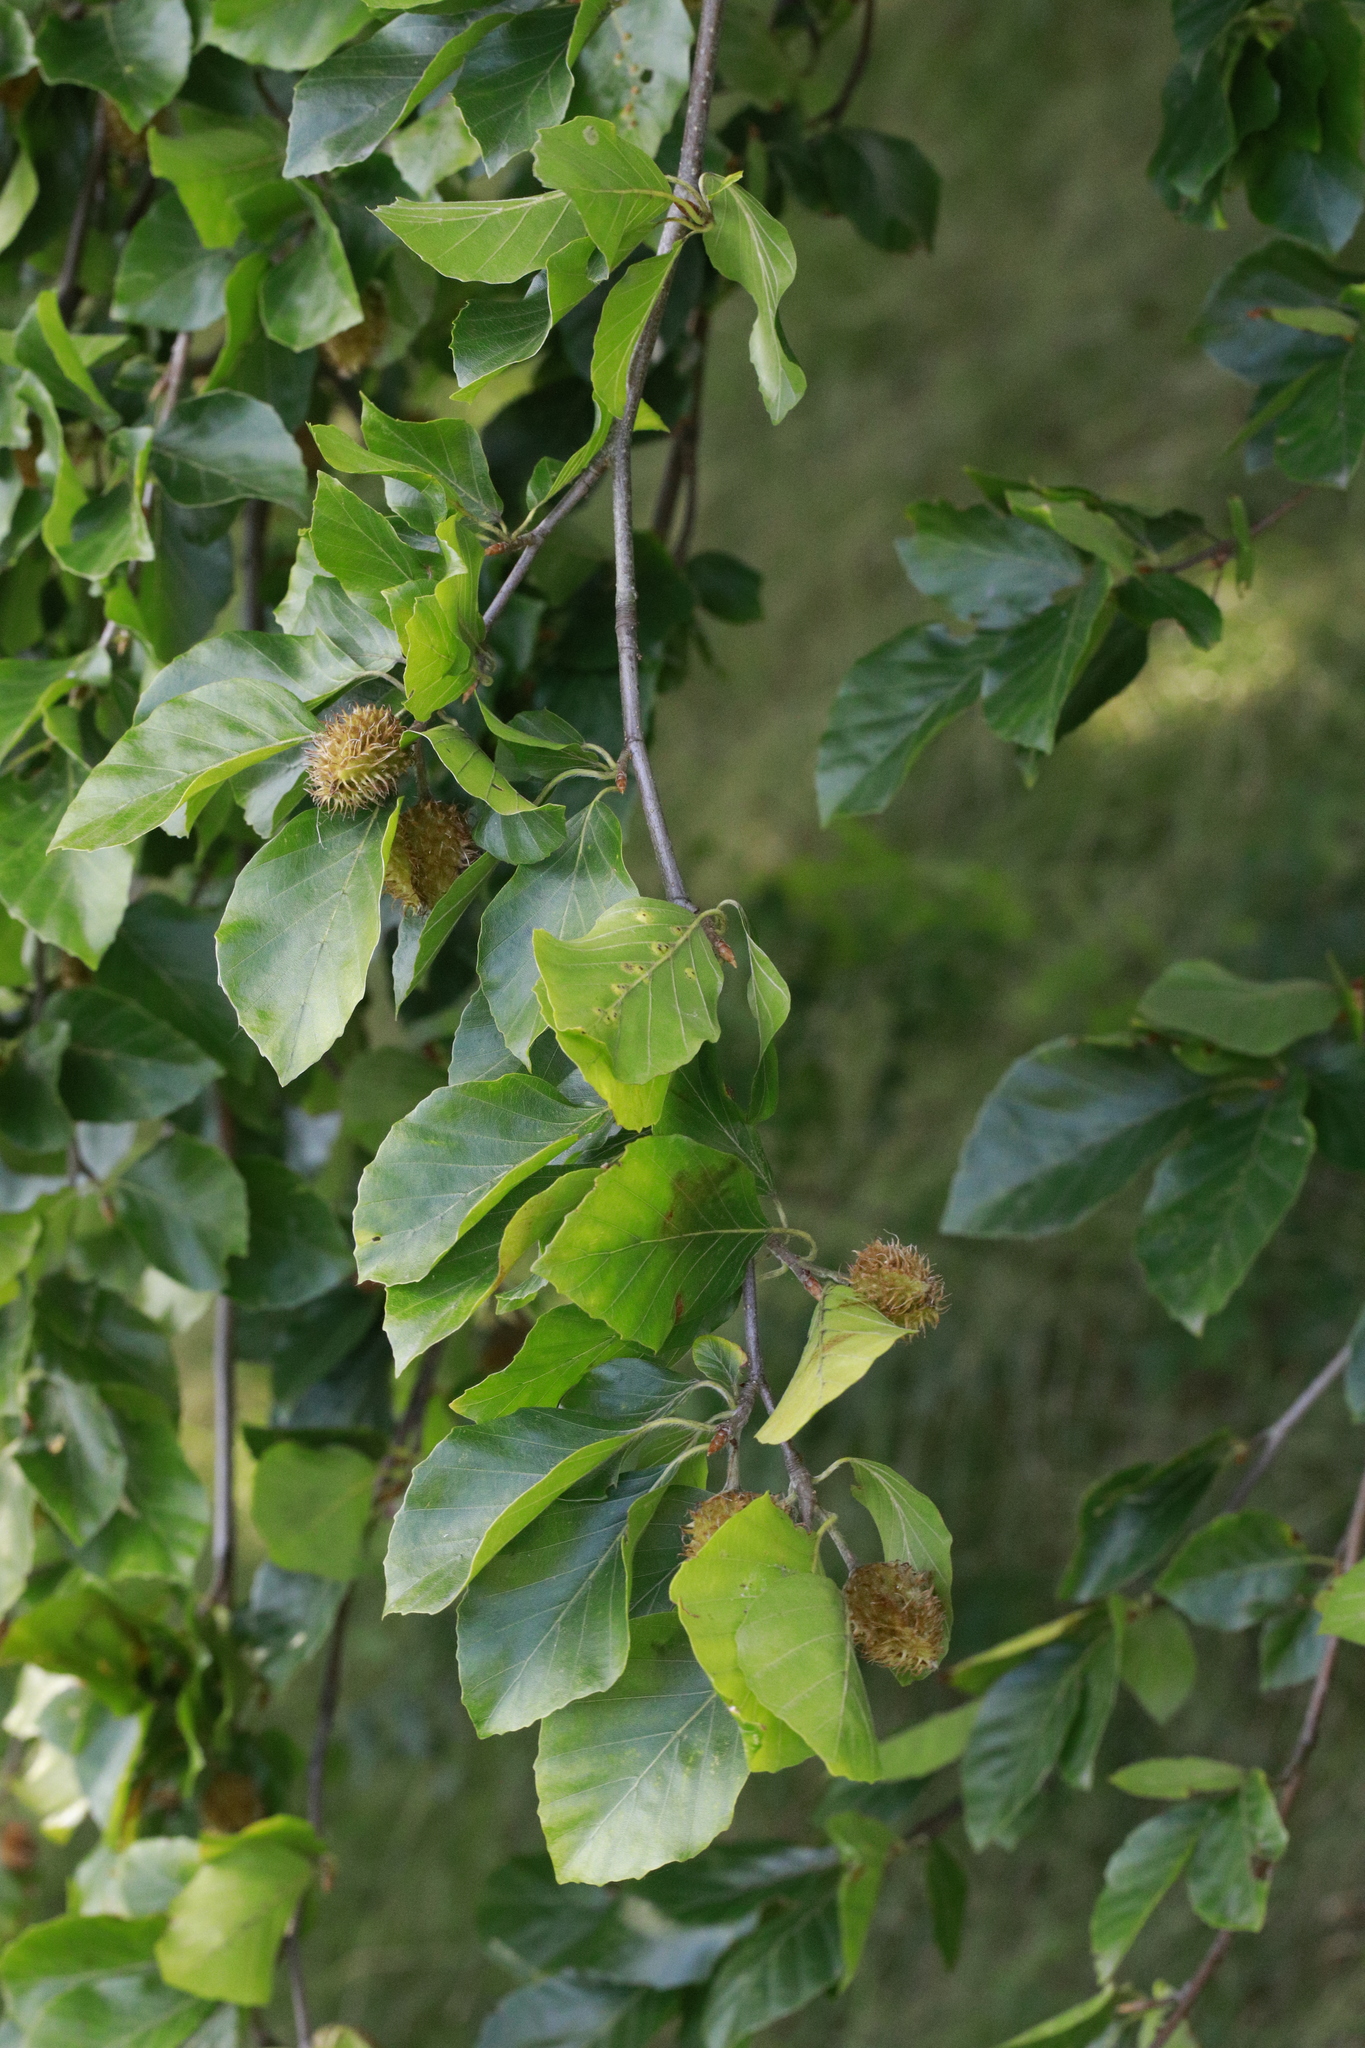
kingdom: Plantae
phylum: Tracheophyta
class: Magnoliopsida
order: Fagales
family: Fagaceae
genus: Fagus
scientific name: Fagus sylvatica
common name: Beech
